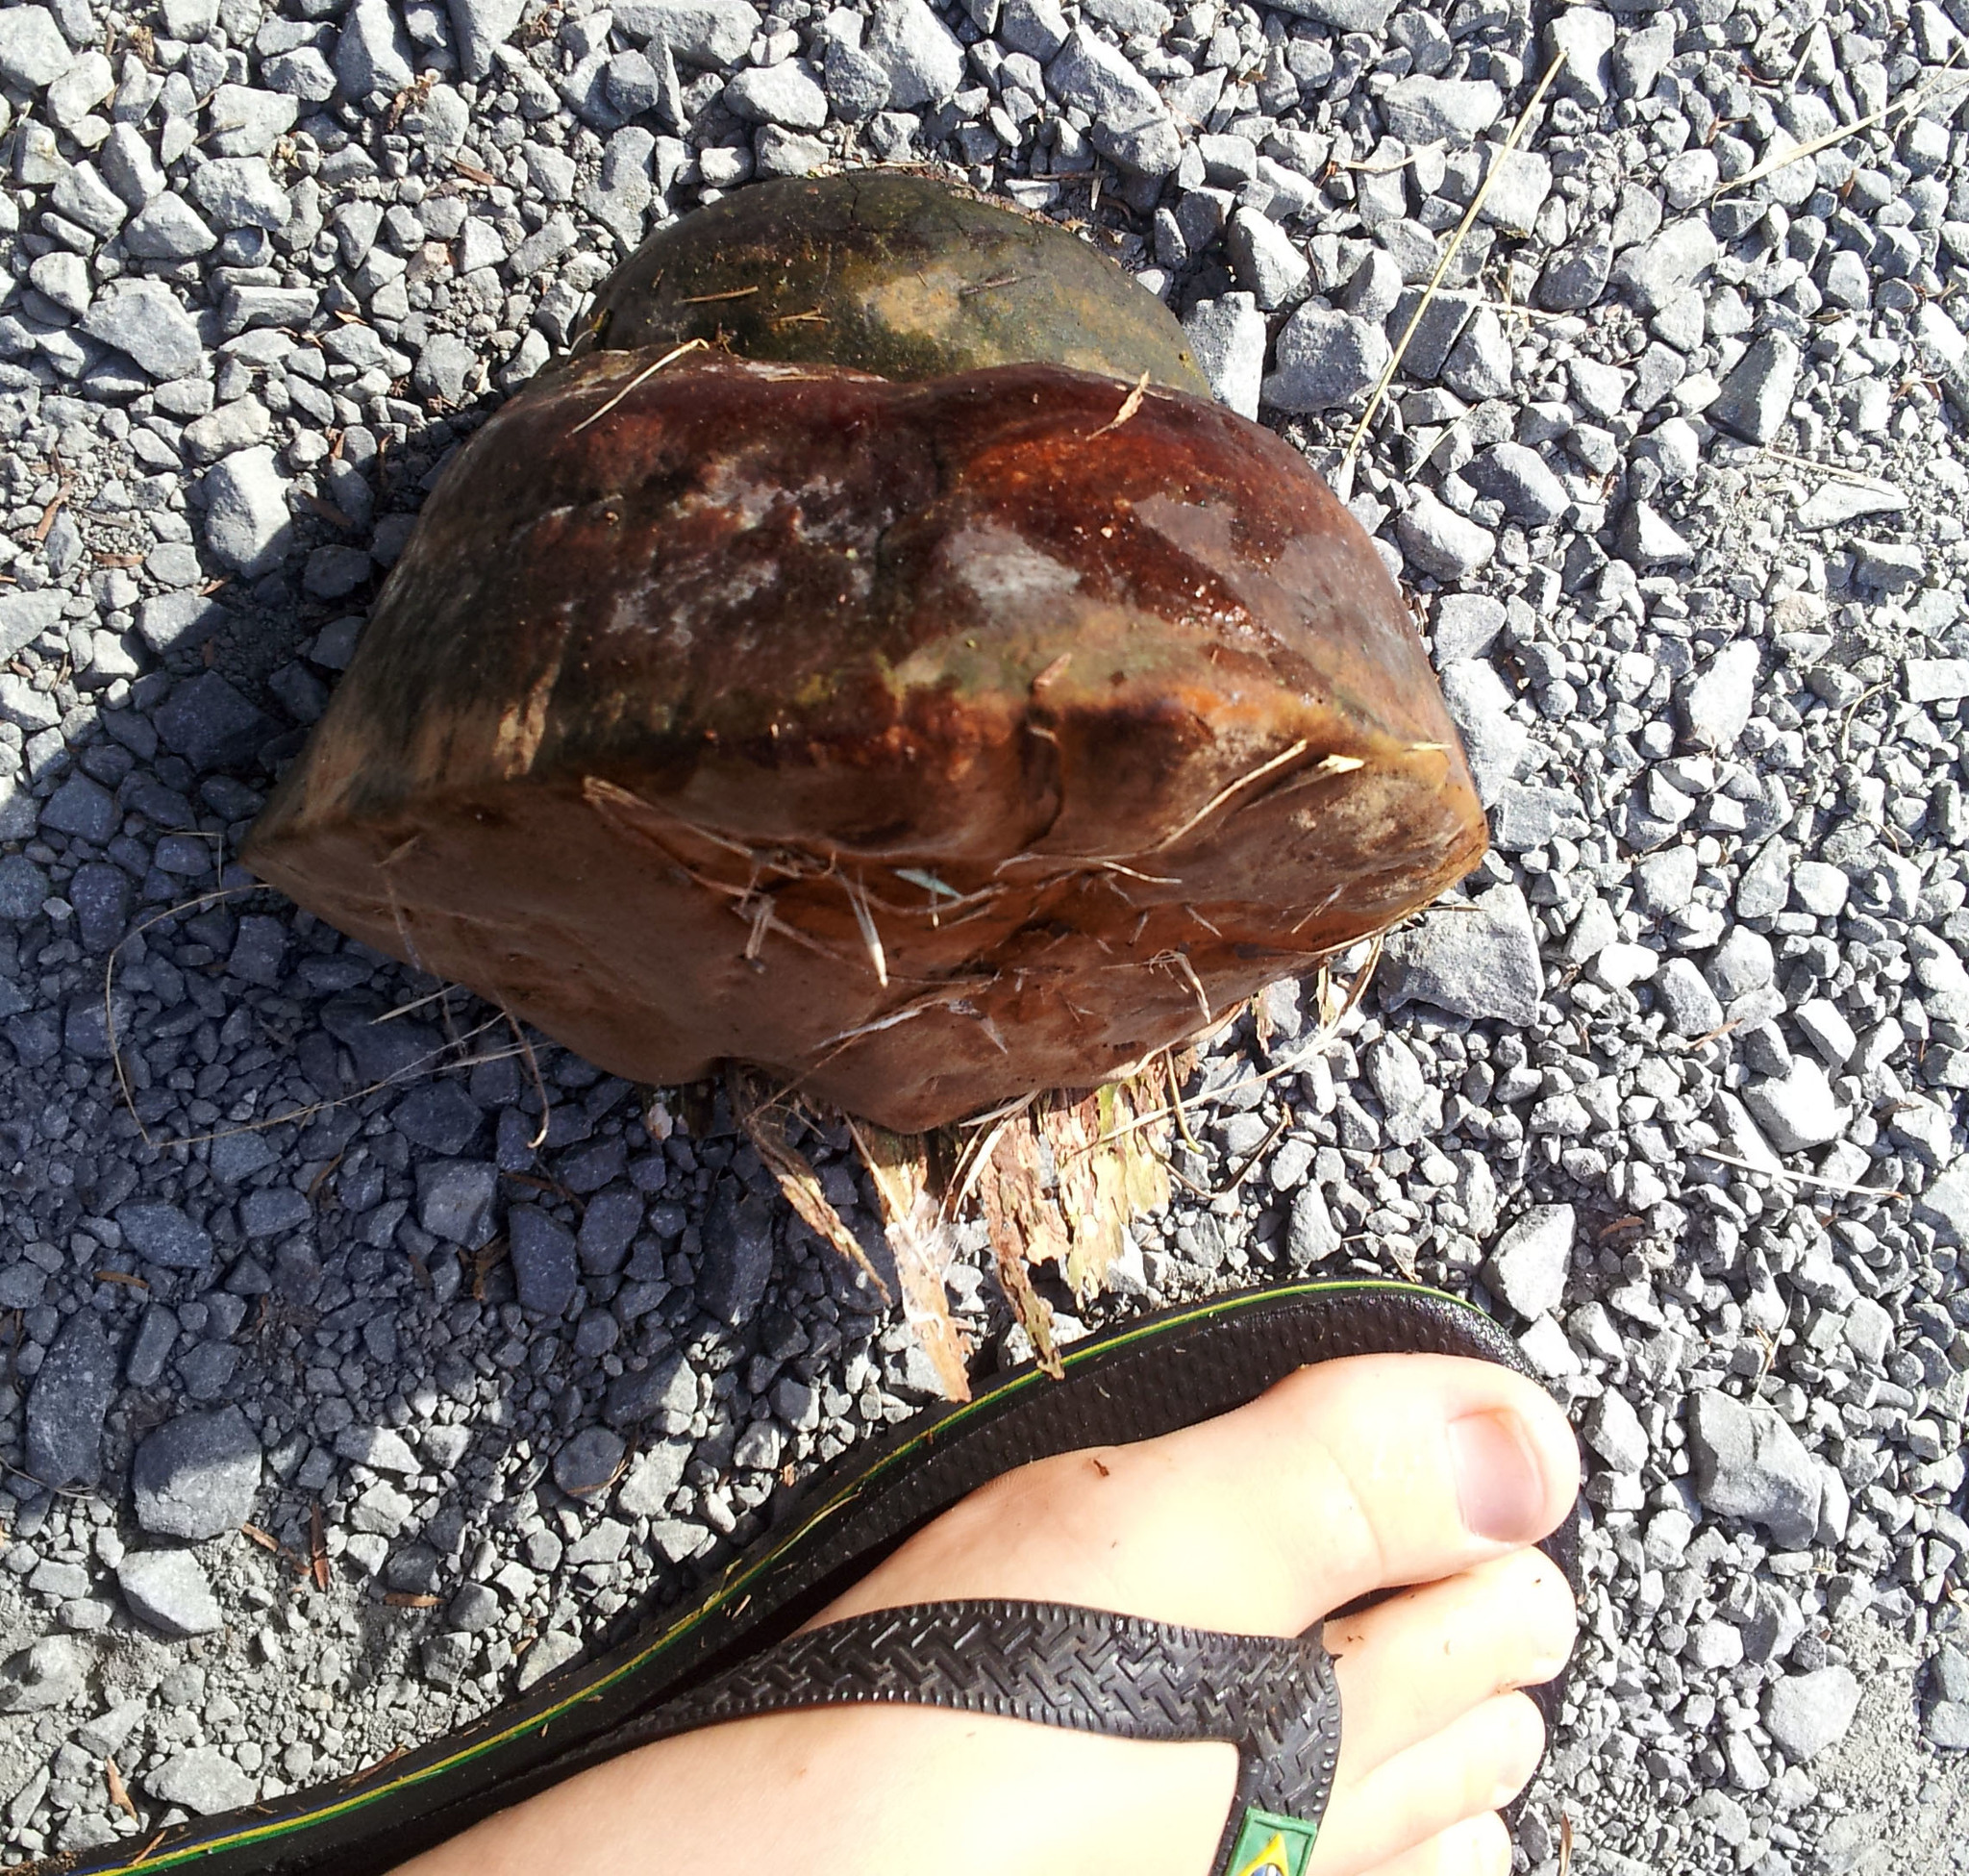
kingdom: Fungi
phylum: Basidiomycota
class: Agaricomycetes
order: Hymenochaetales
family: Hymenochaetaceae
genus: Fomitiporia
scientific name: Fomitiporia
